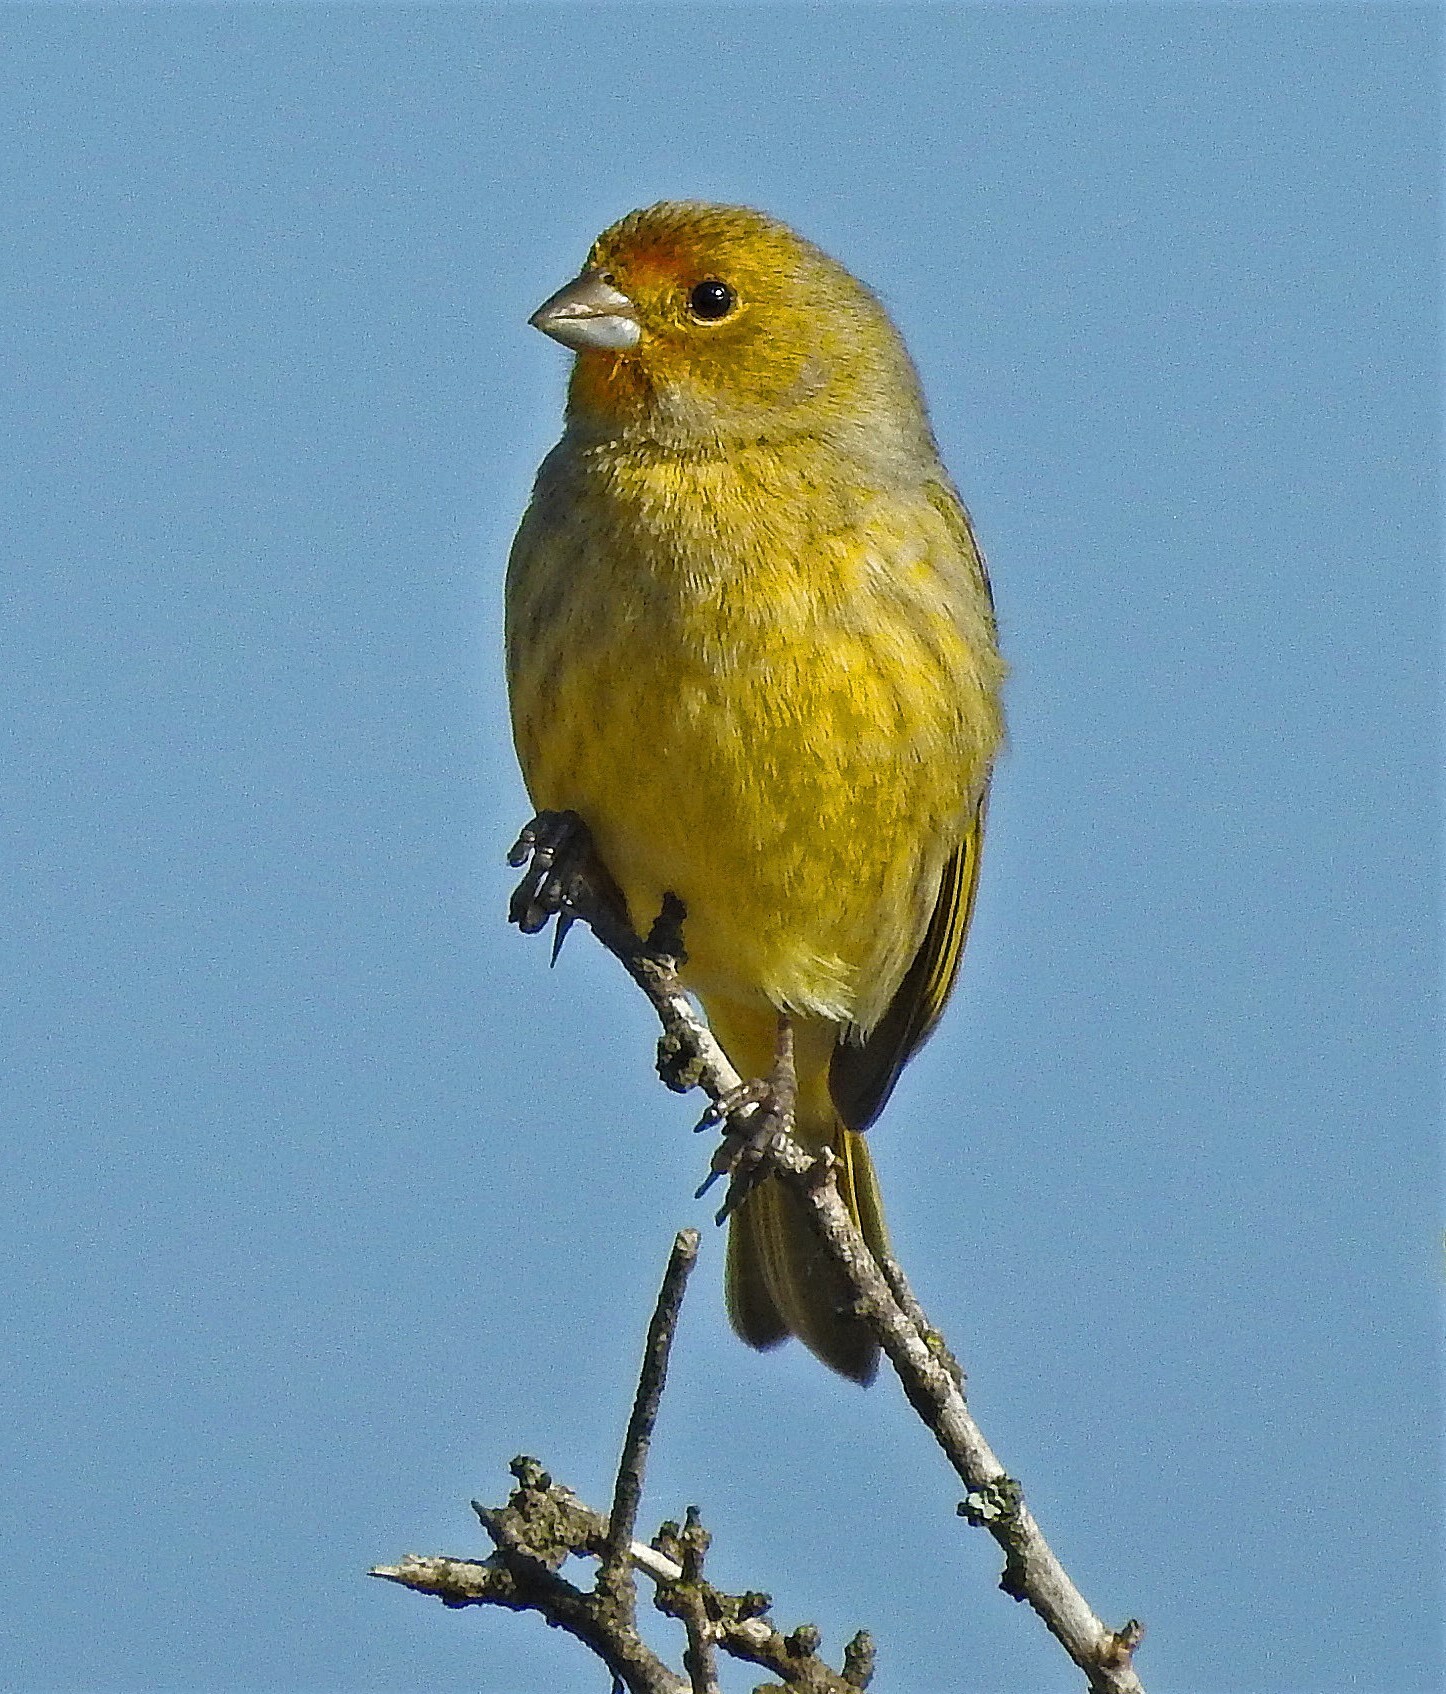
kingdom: Animalia
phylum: Chordata
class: Aves
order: Passeriformes
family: Thraupidae
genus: Sicalis
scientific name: Sicalis flaveola
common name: Saffron finch
